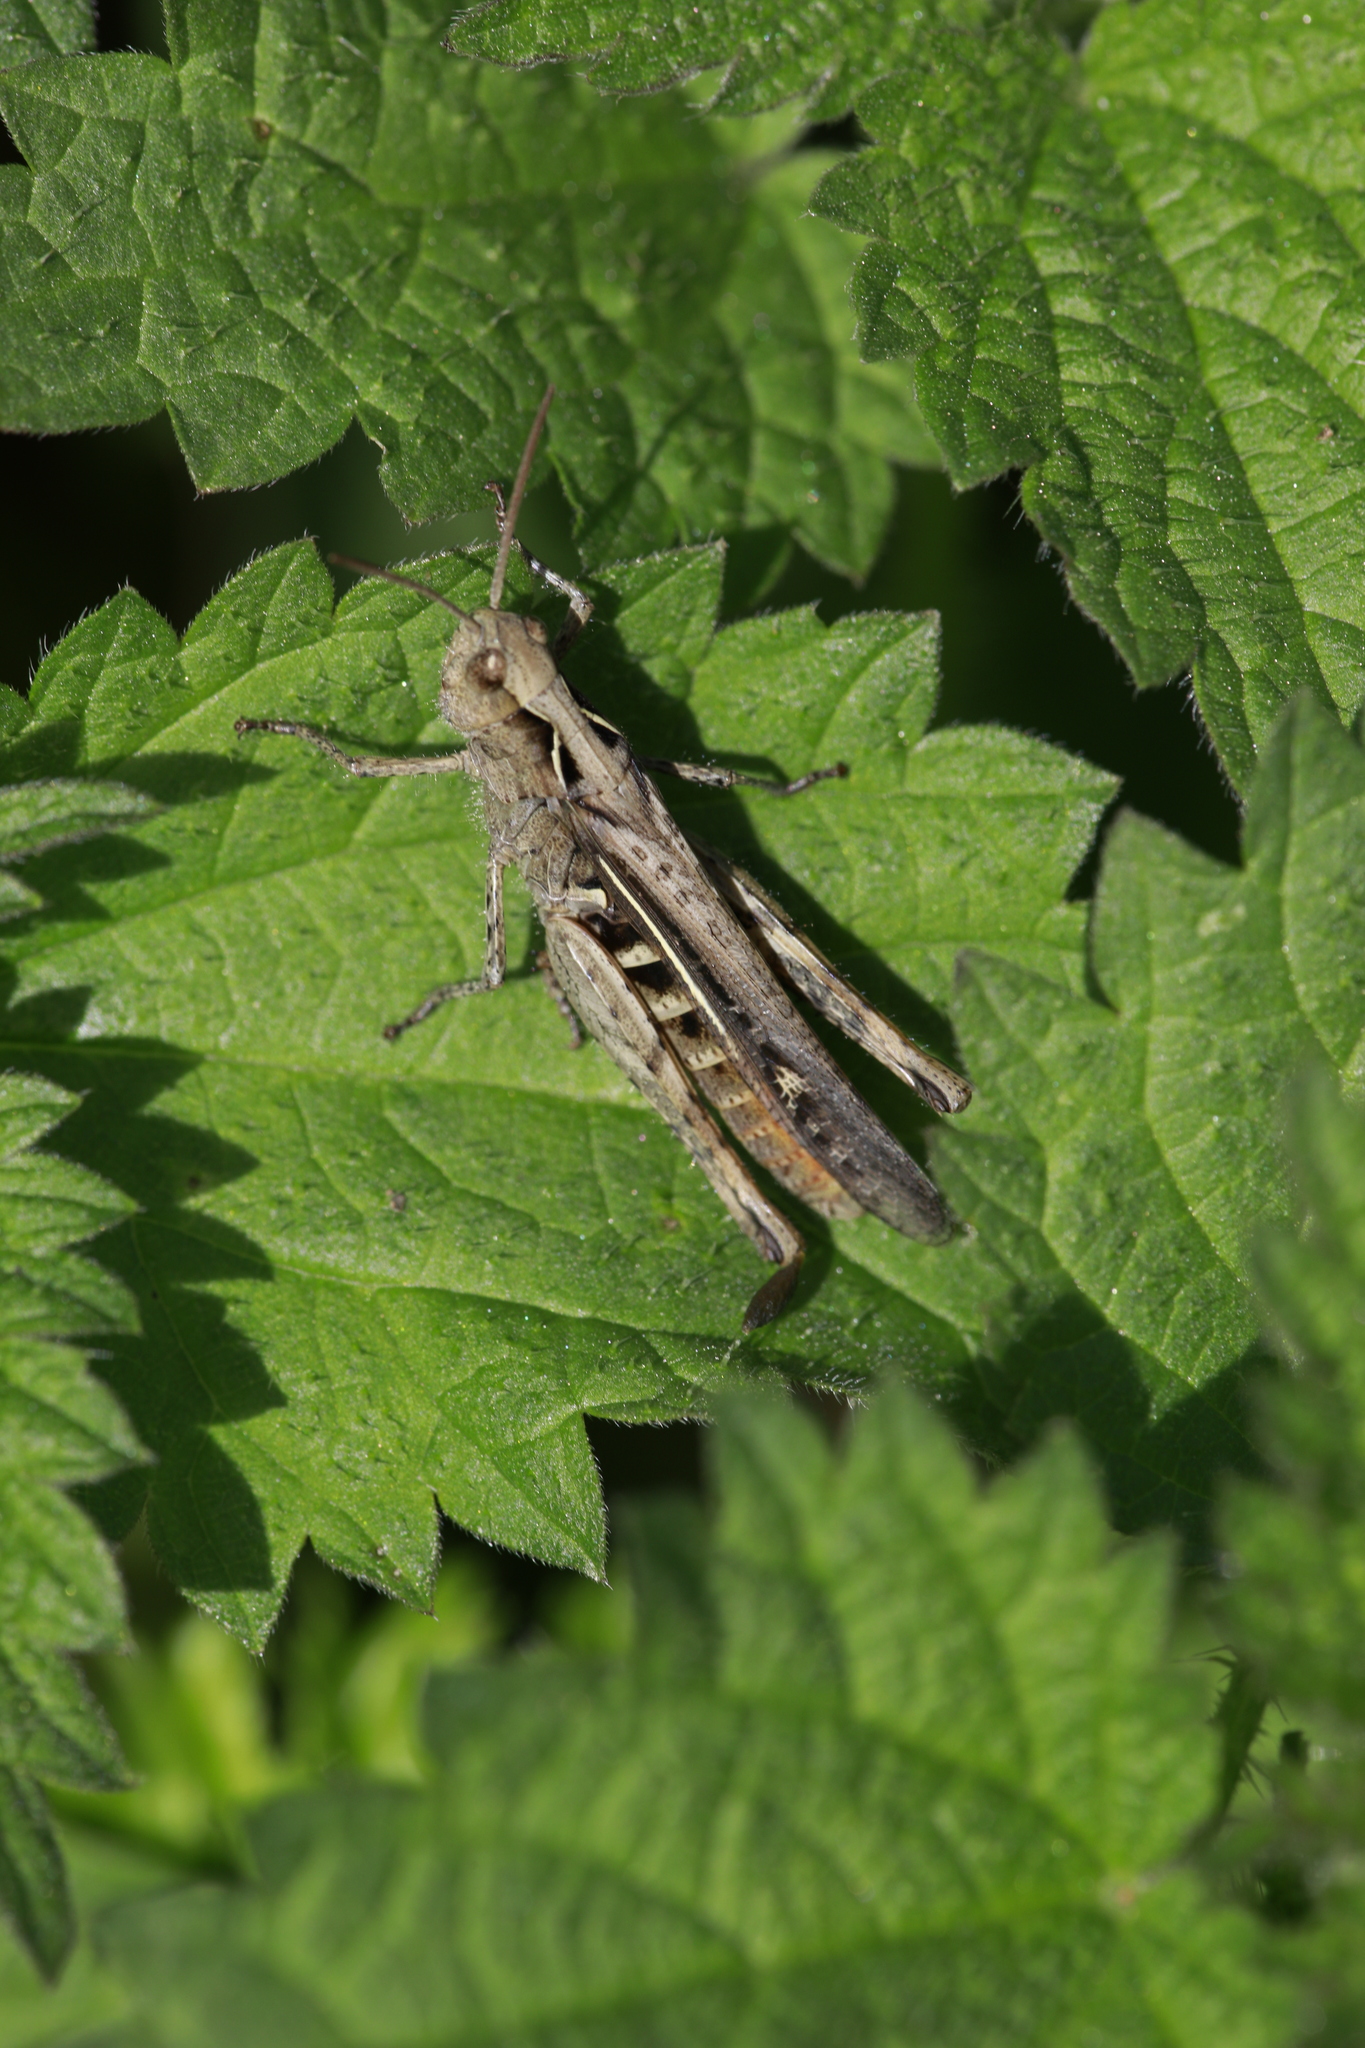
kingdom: Animalia
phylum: Arthropoda
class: Insecta
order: Orthoptera
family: Acrididae
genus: Chorthippus
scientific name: Chorthippus brunneus
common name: Field grasshopper
